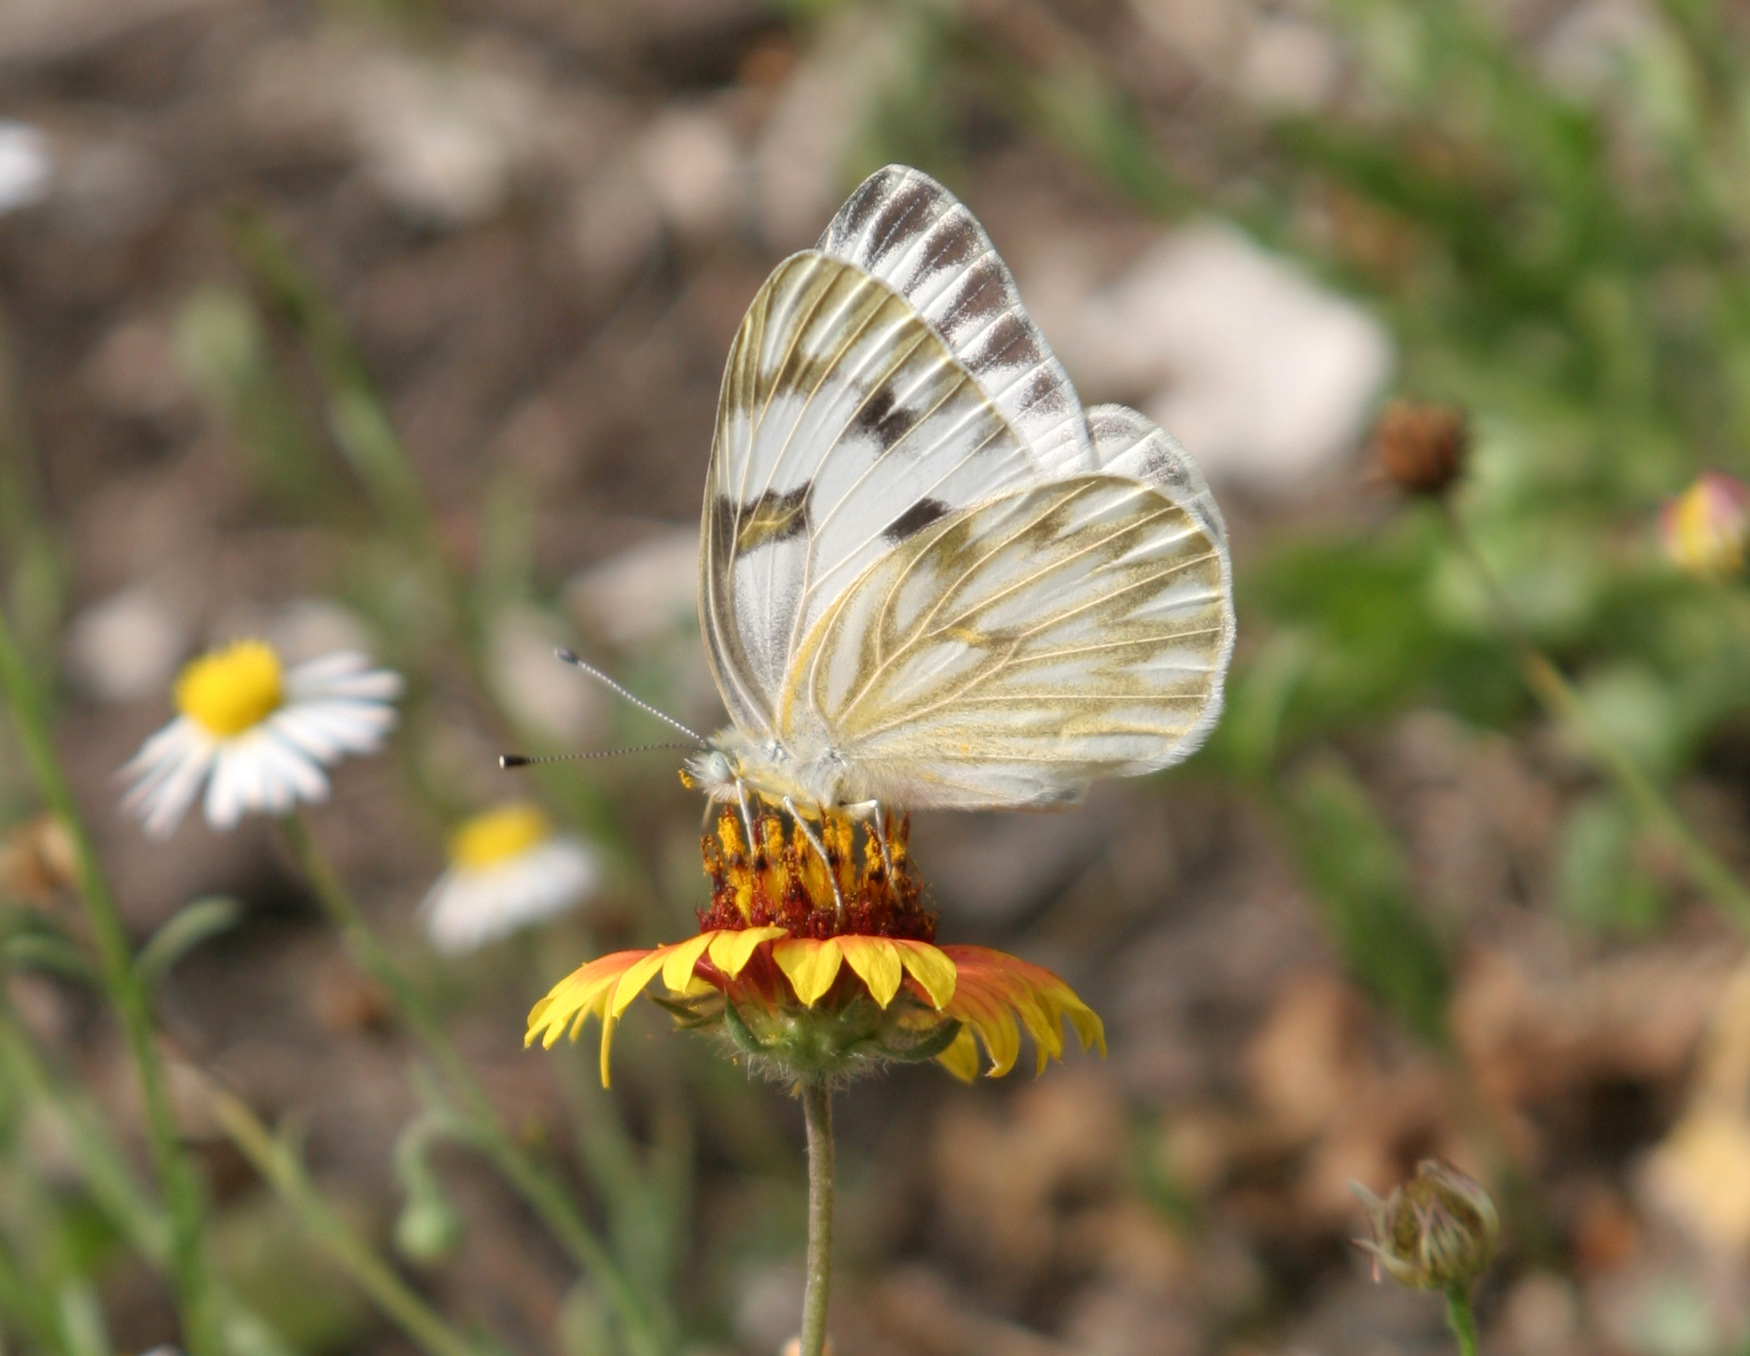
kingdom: Animalia
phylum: Arthropoda
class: Insecta
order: Lepidoptera
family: Pieridae
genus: Pontia
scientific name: Pontia protodice
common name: Checkered white
